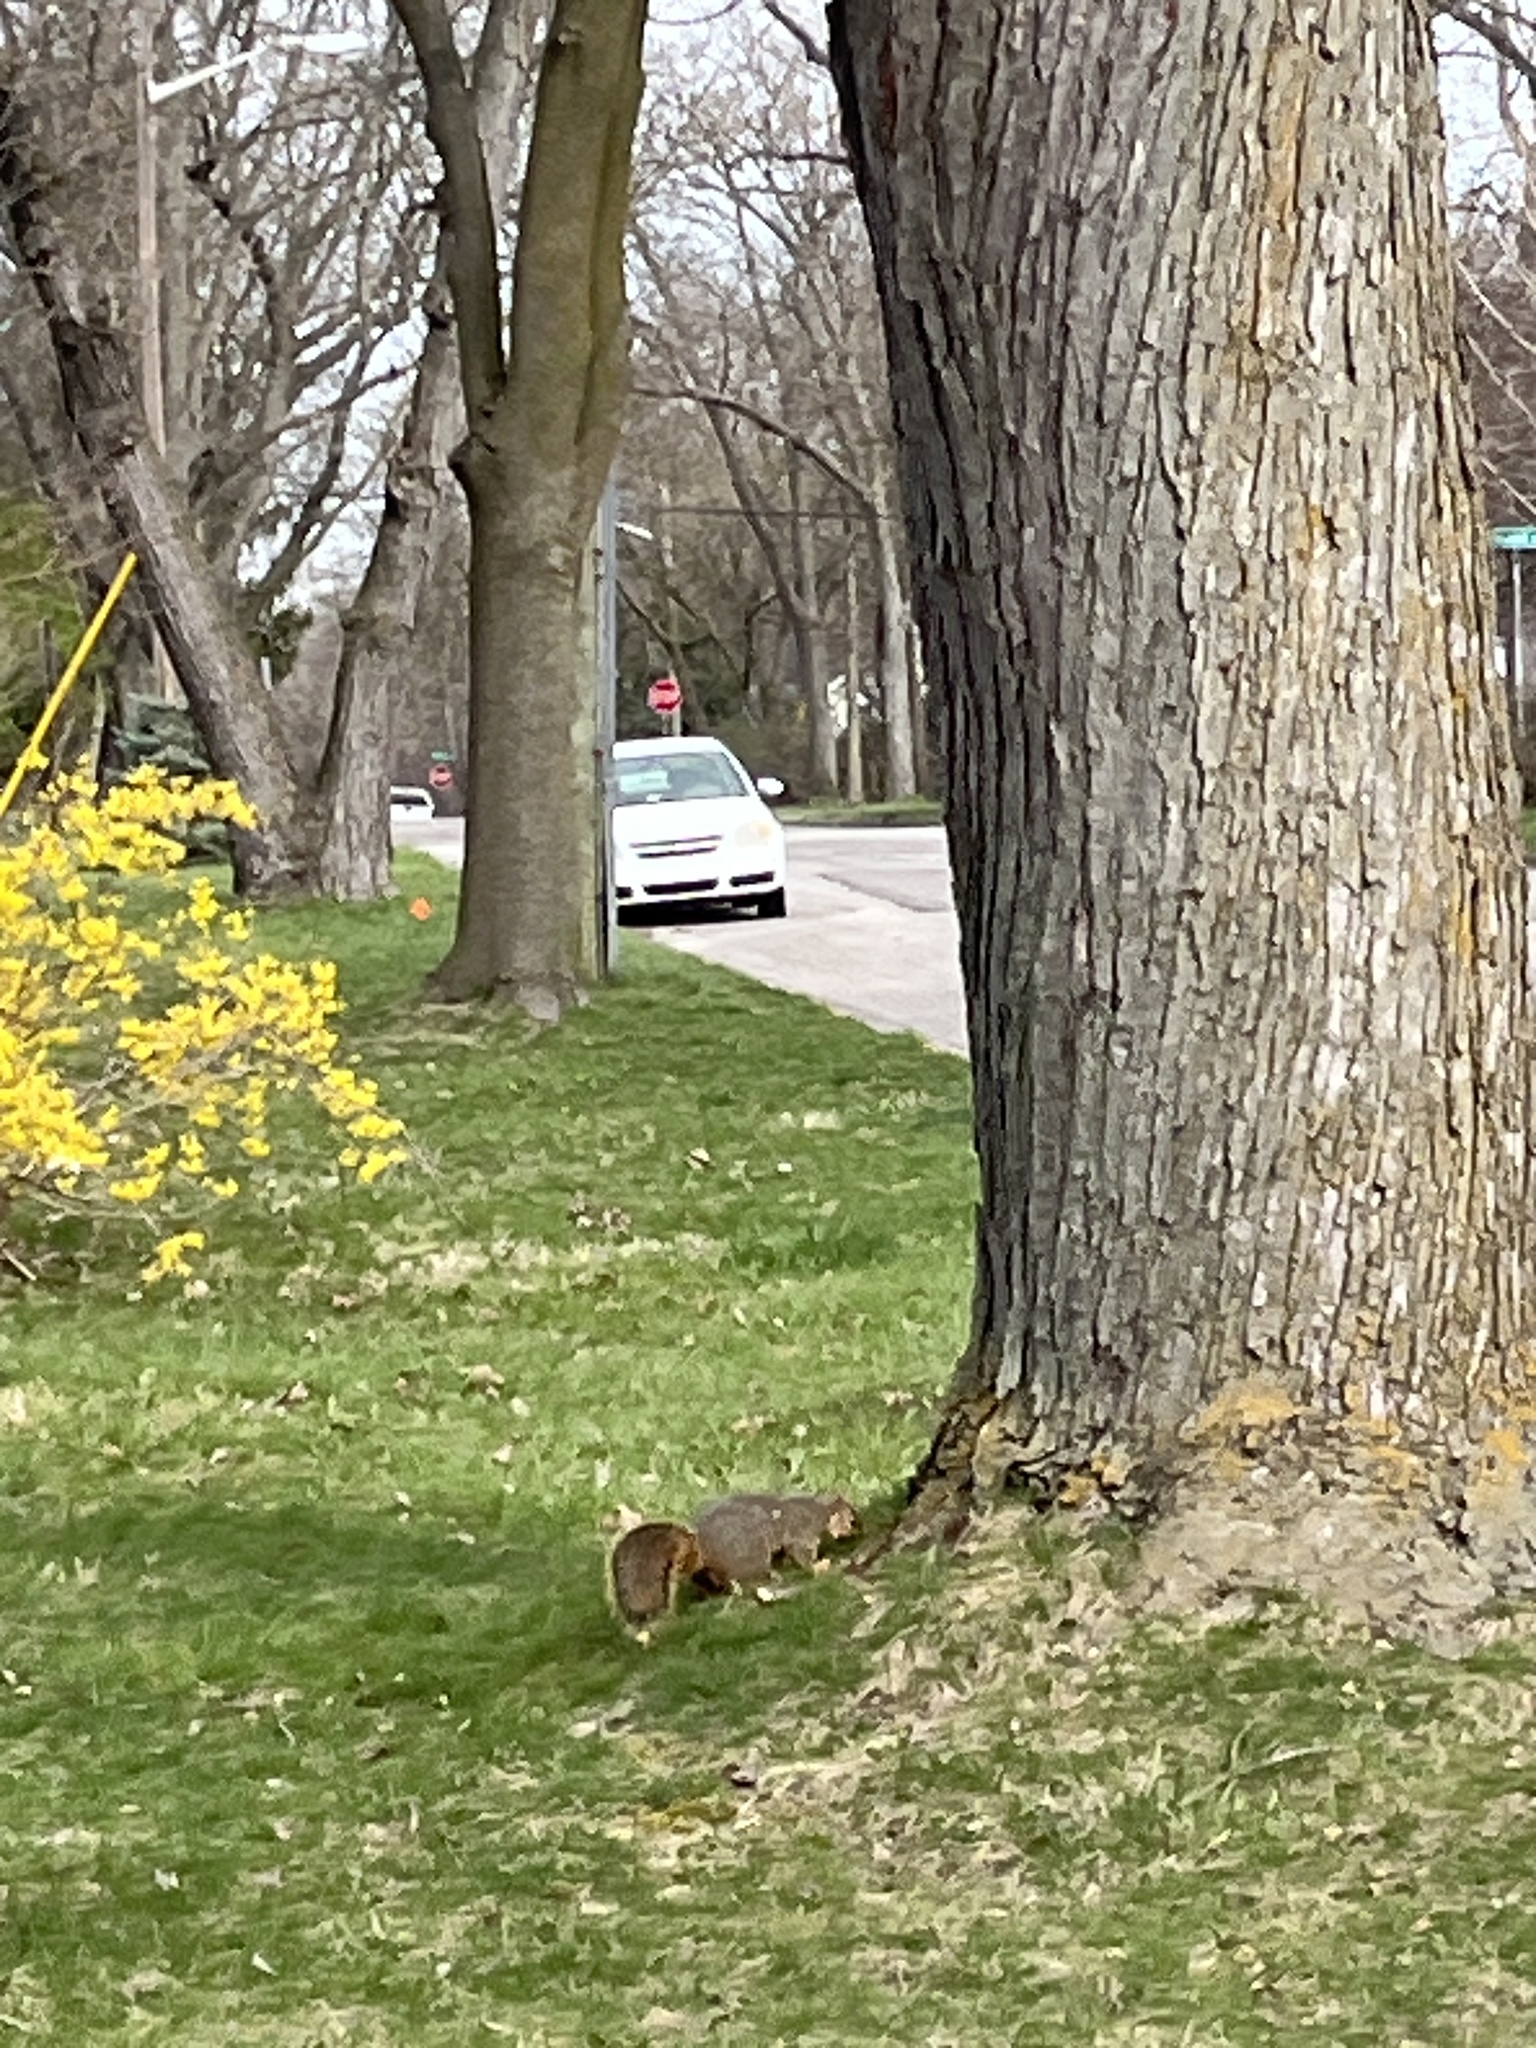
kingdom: Animalia
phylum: Chordata
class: Mammalia
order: Rodentia
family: Sciuridae
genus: Sciurus
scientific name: Sciurus niger
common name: Fox squirrel
